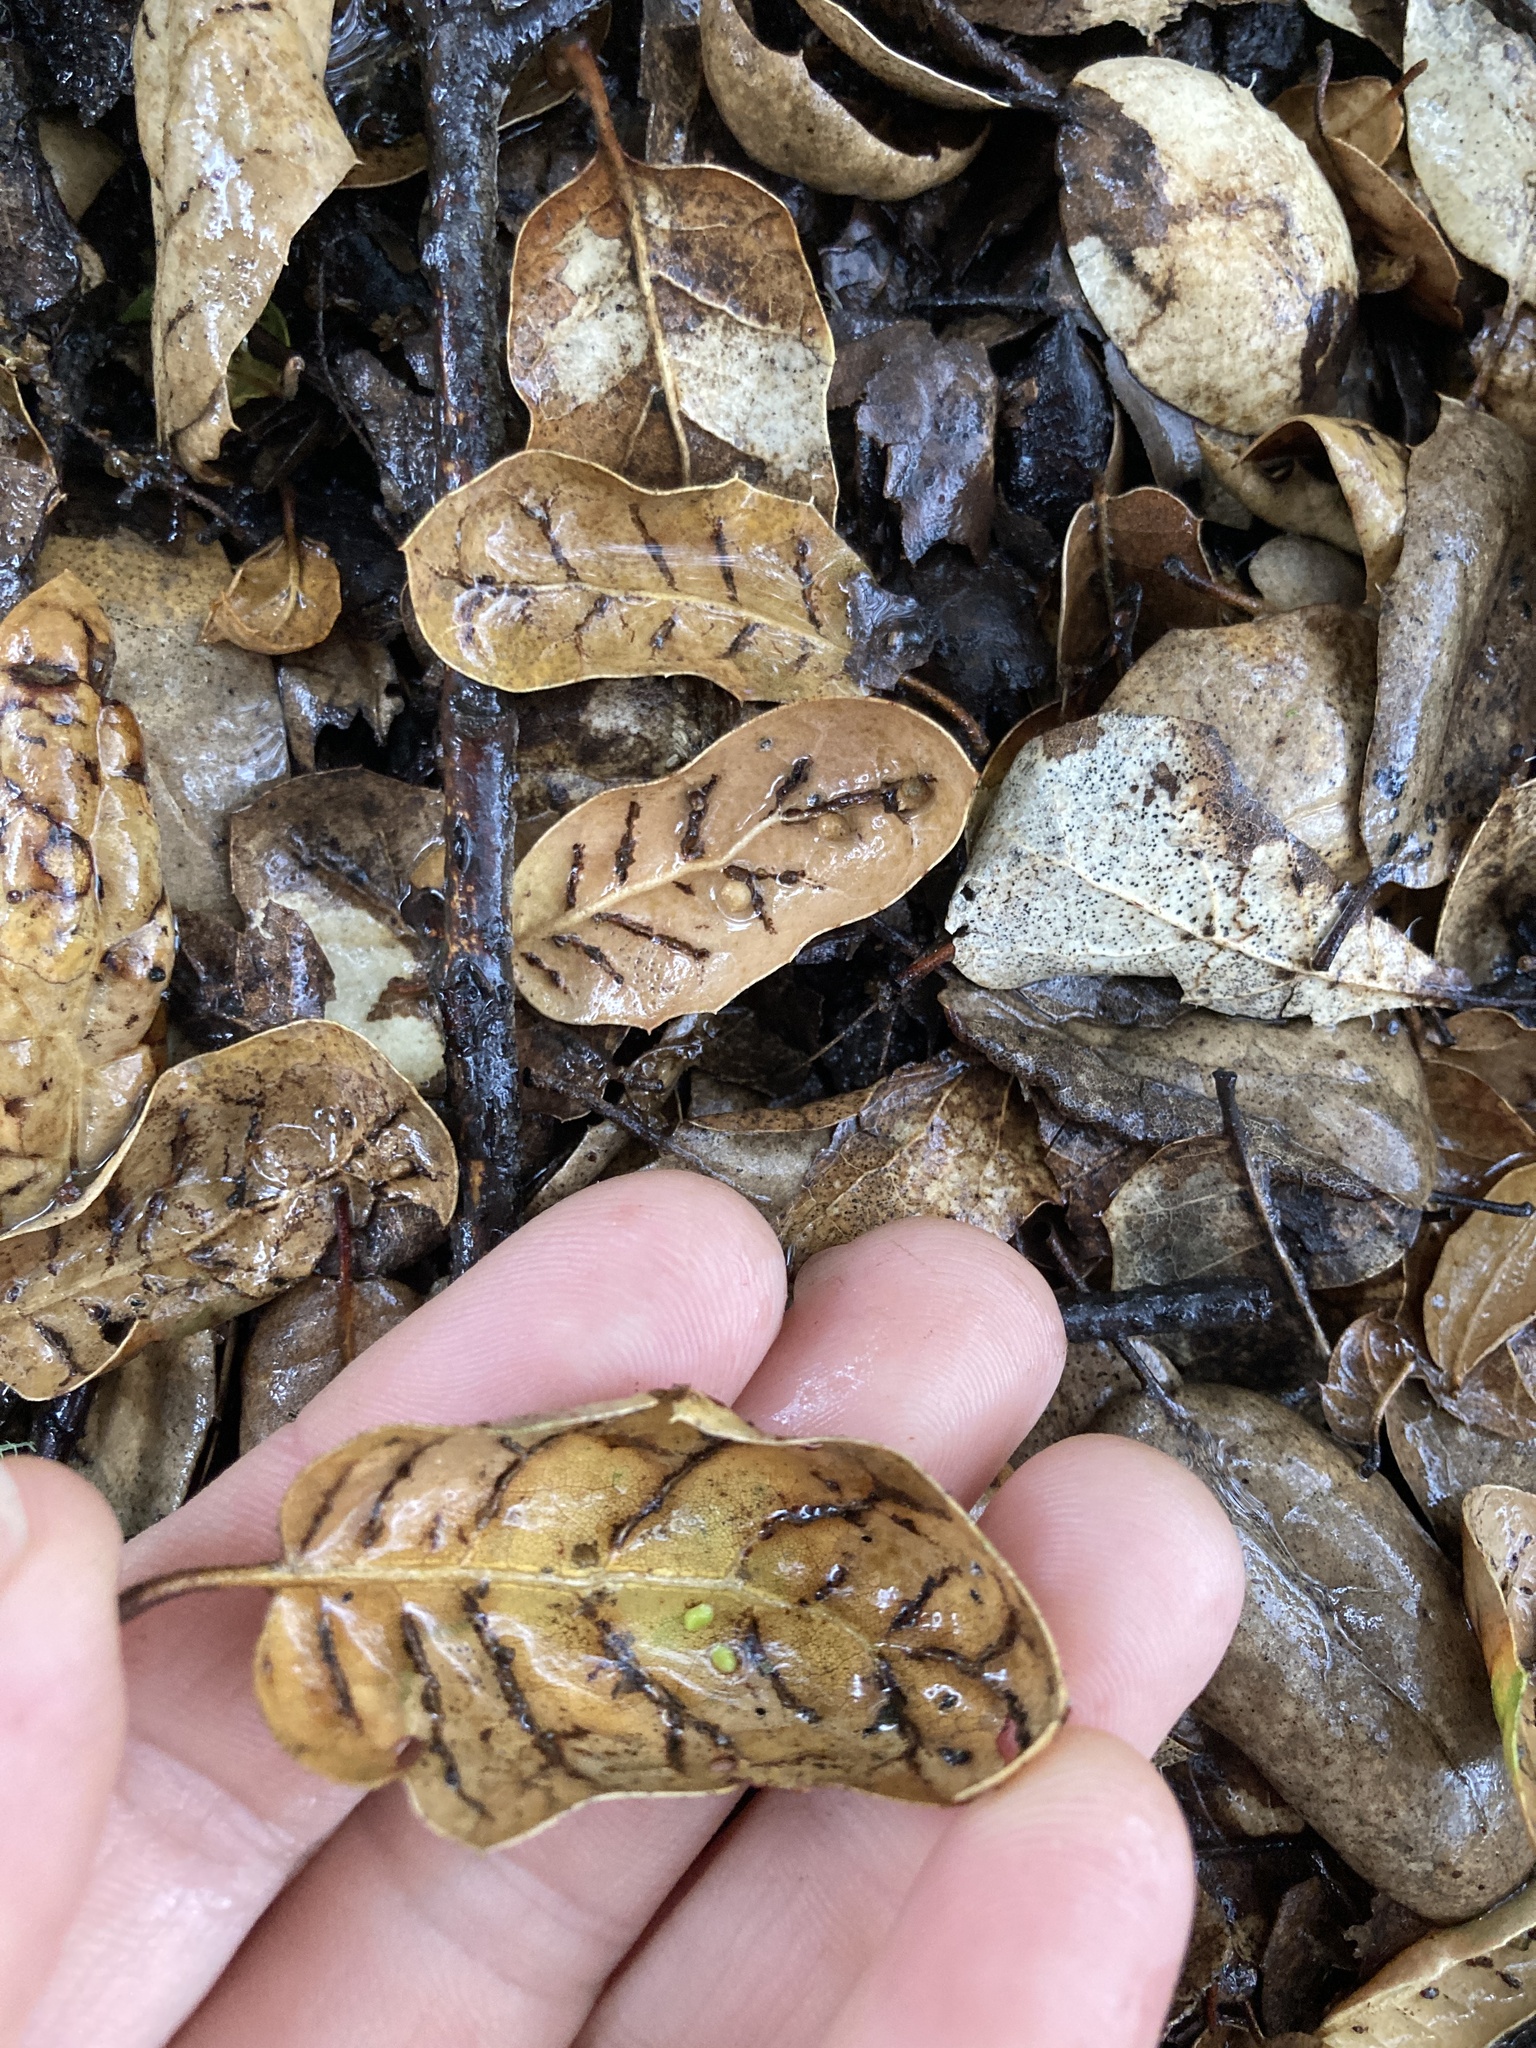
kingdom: Animalia
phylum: Arthropoda
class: Insecta
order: Hymenoptera
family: Cynipidae
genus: Dryocosmus
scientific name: Dryocosmus
